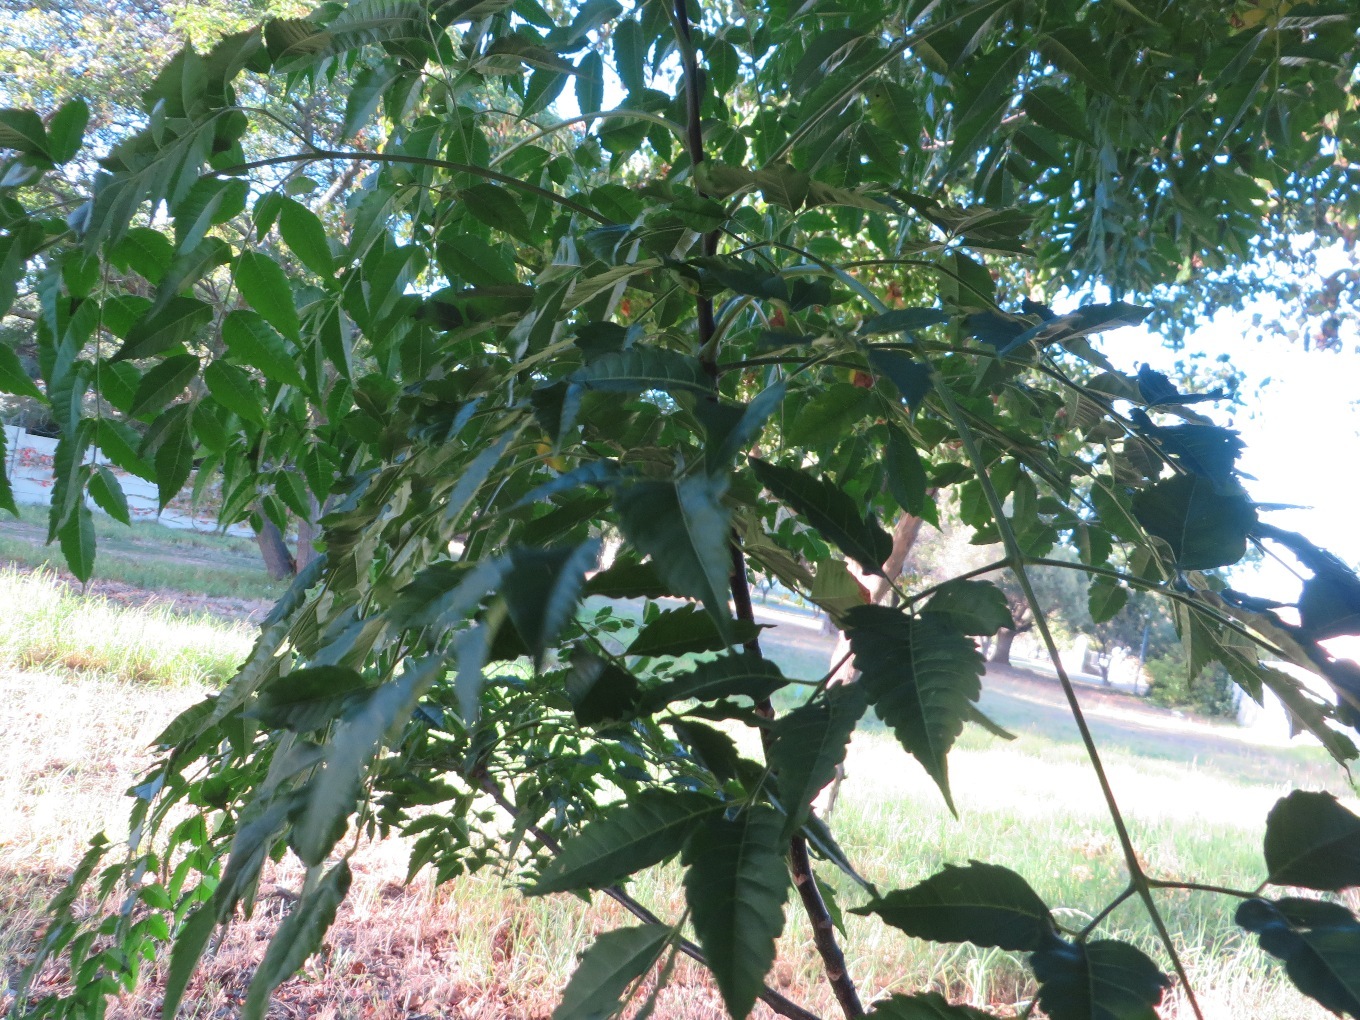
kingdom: Plantae
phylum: Tracheophyta
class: Magnoliopsida
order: Sapindales
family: Meliaceae
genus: Melia
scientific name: Melia azedarach
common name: Chinaberrytree
